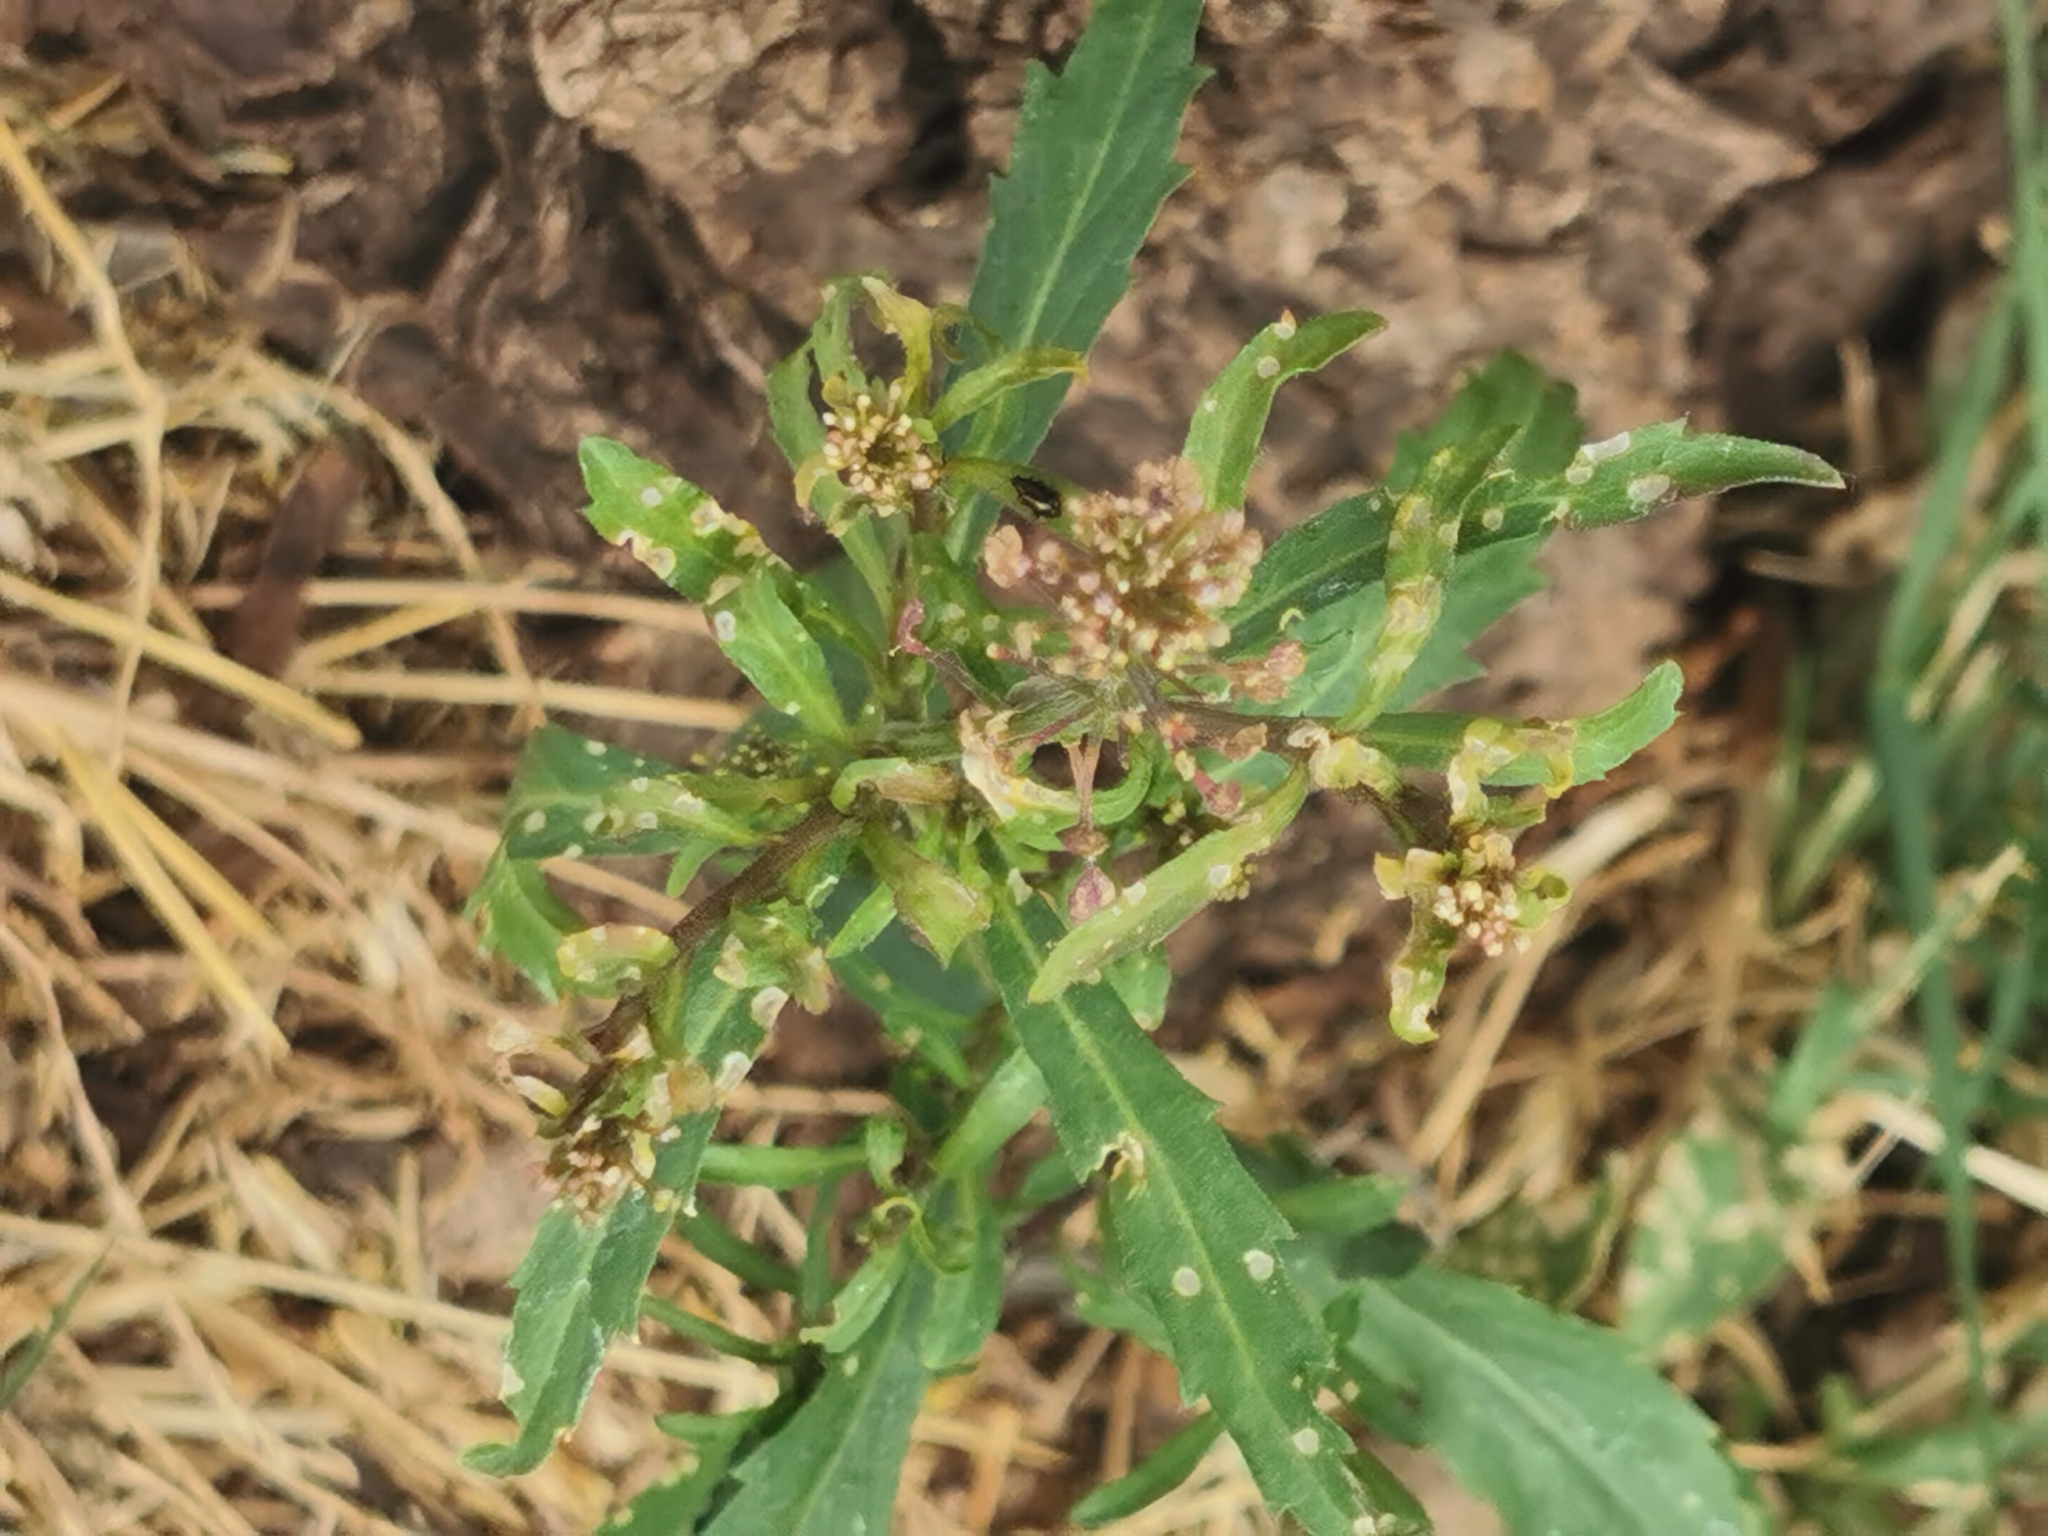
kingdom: Plantae
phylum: Tracheophyta
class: Magnoliopsida
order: Brassicales
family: Brassicaceae
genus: Lepidium
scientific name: Lepidium virginicum
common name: Least pepperwort
